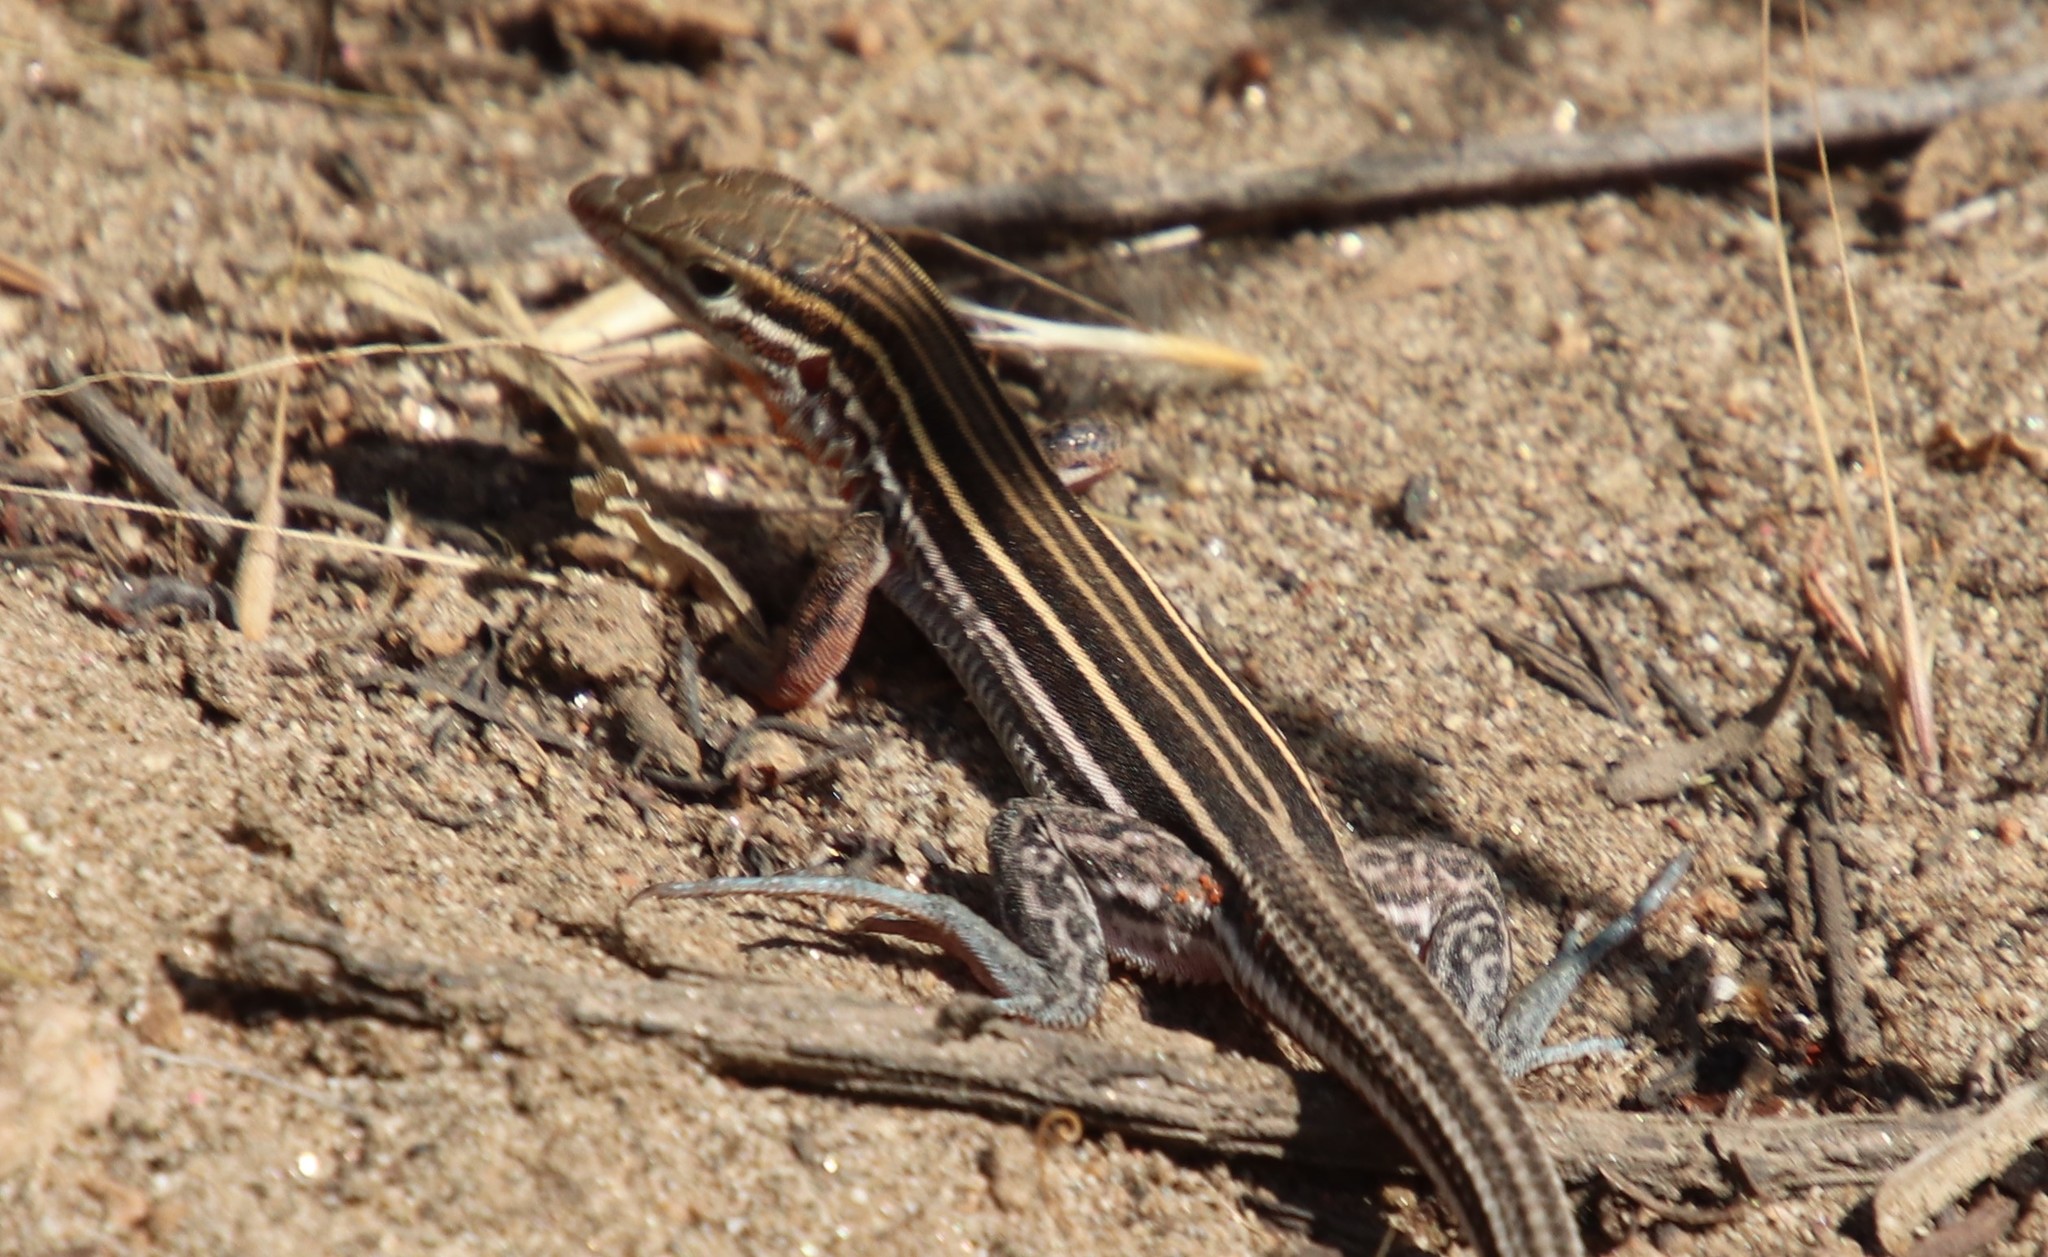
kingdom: Animalia
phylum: Chordata
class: Squamata
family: Teiidae
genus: Aspidoscelis
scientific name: Aspidoscelis hyperythrus
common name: Orange-throated race-runner
